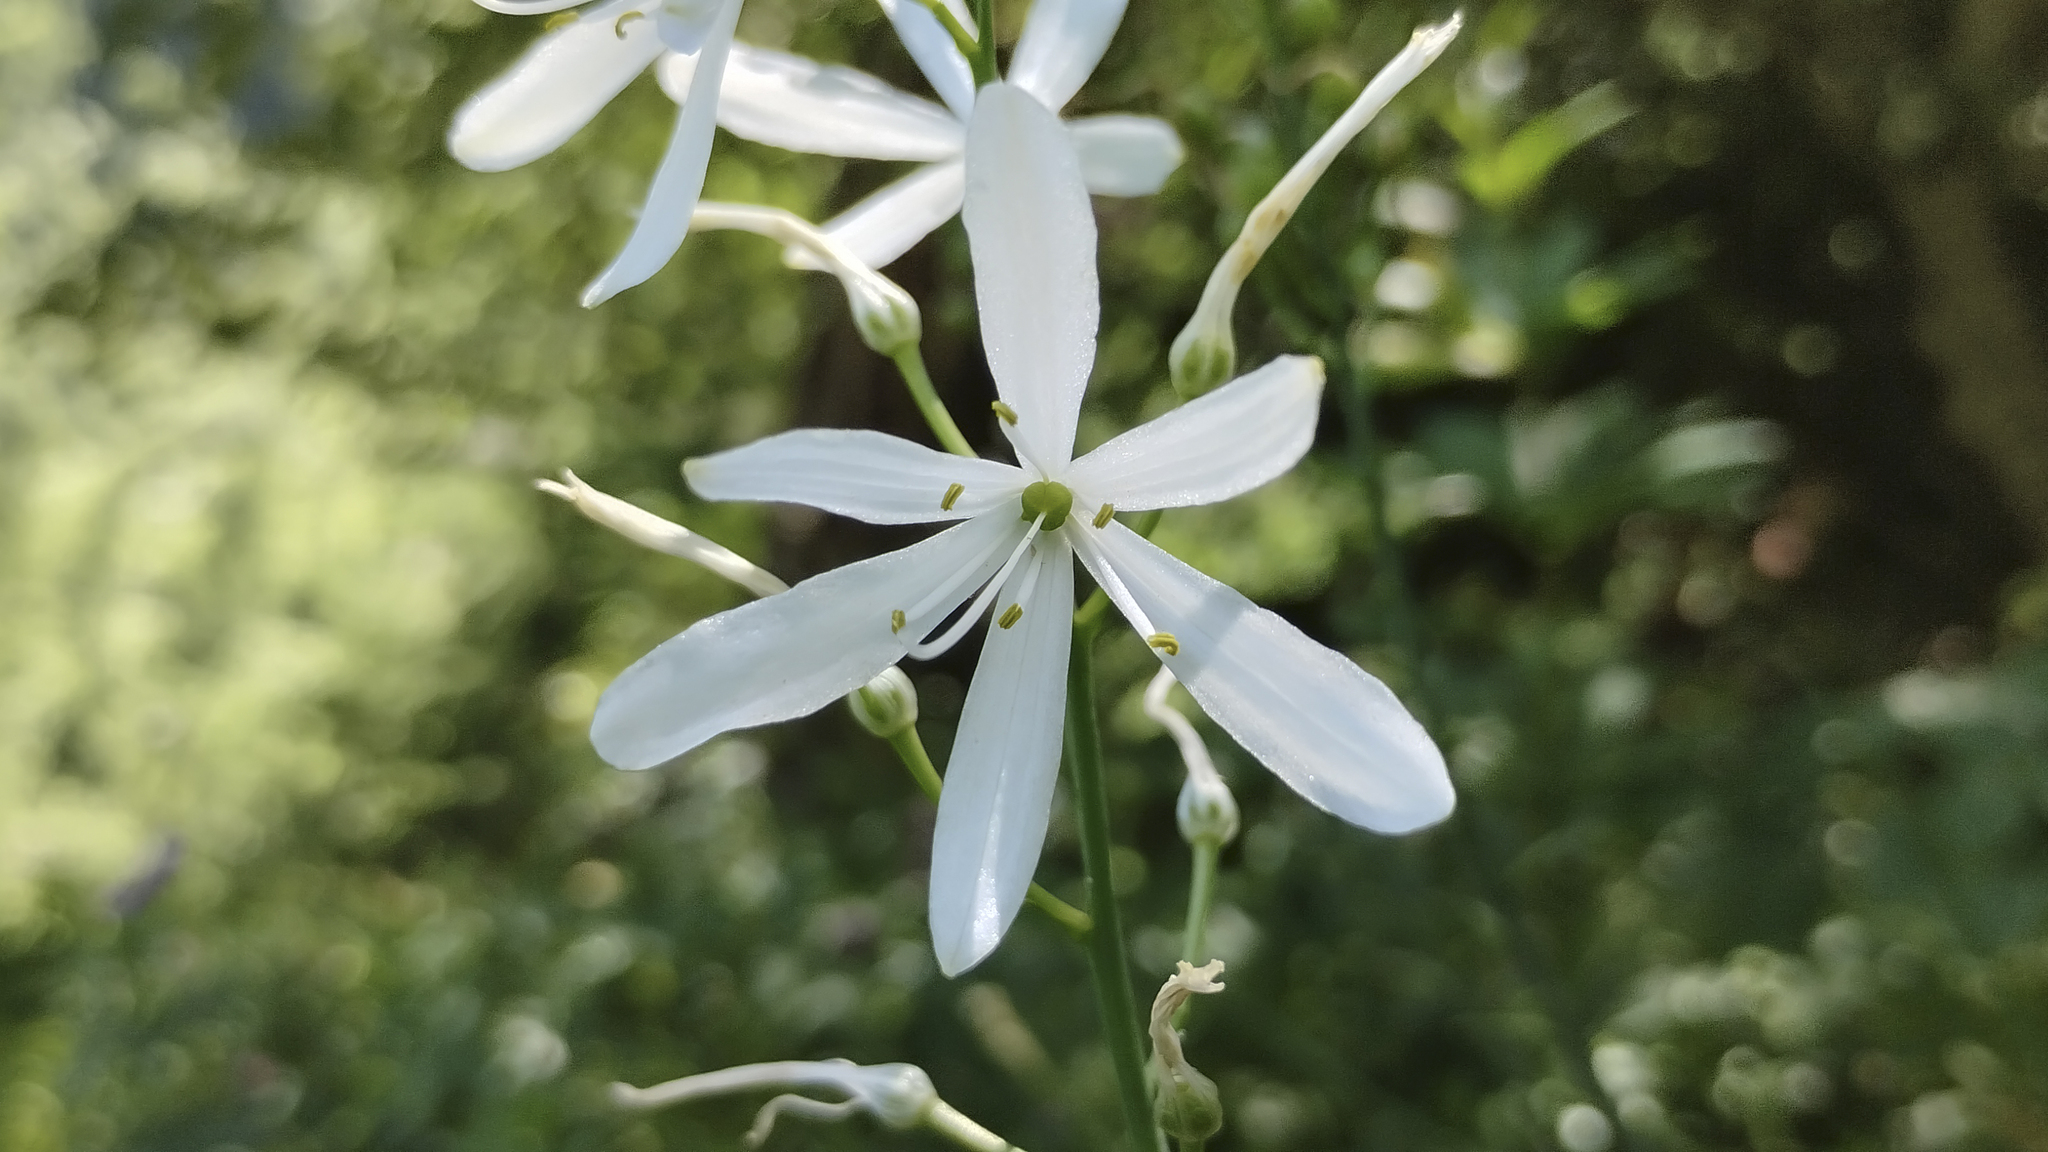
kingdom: Plantae
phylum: Tracheophyta
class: Liliopsida
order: Asparagales
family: Asparagaceae
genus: Anthericum
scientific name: Anthericum liliago
